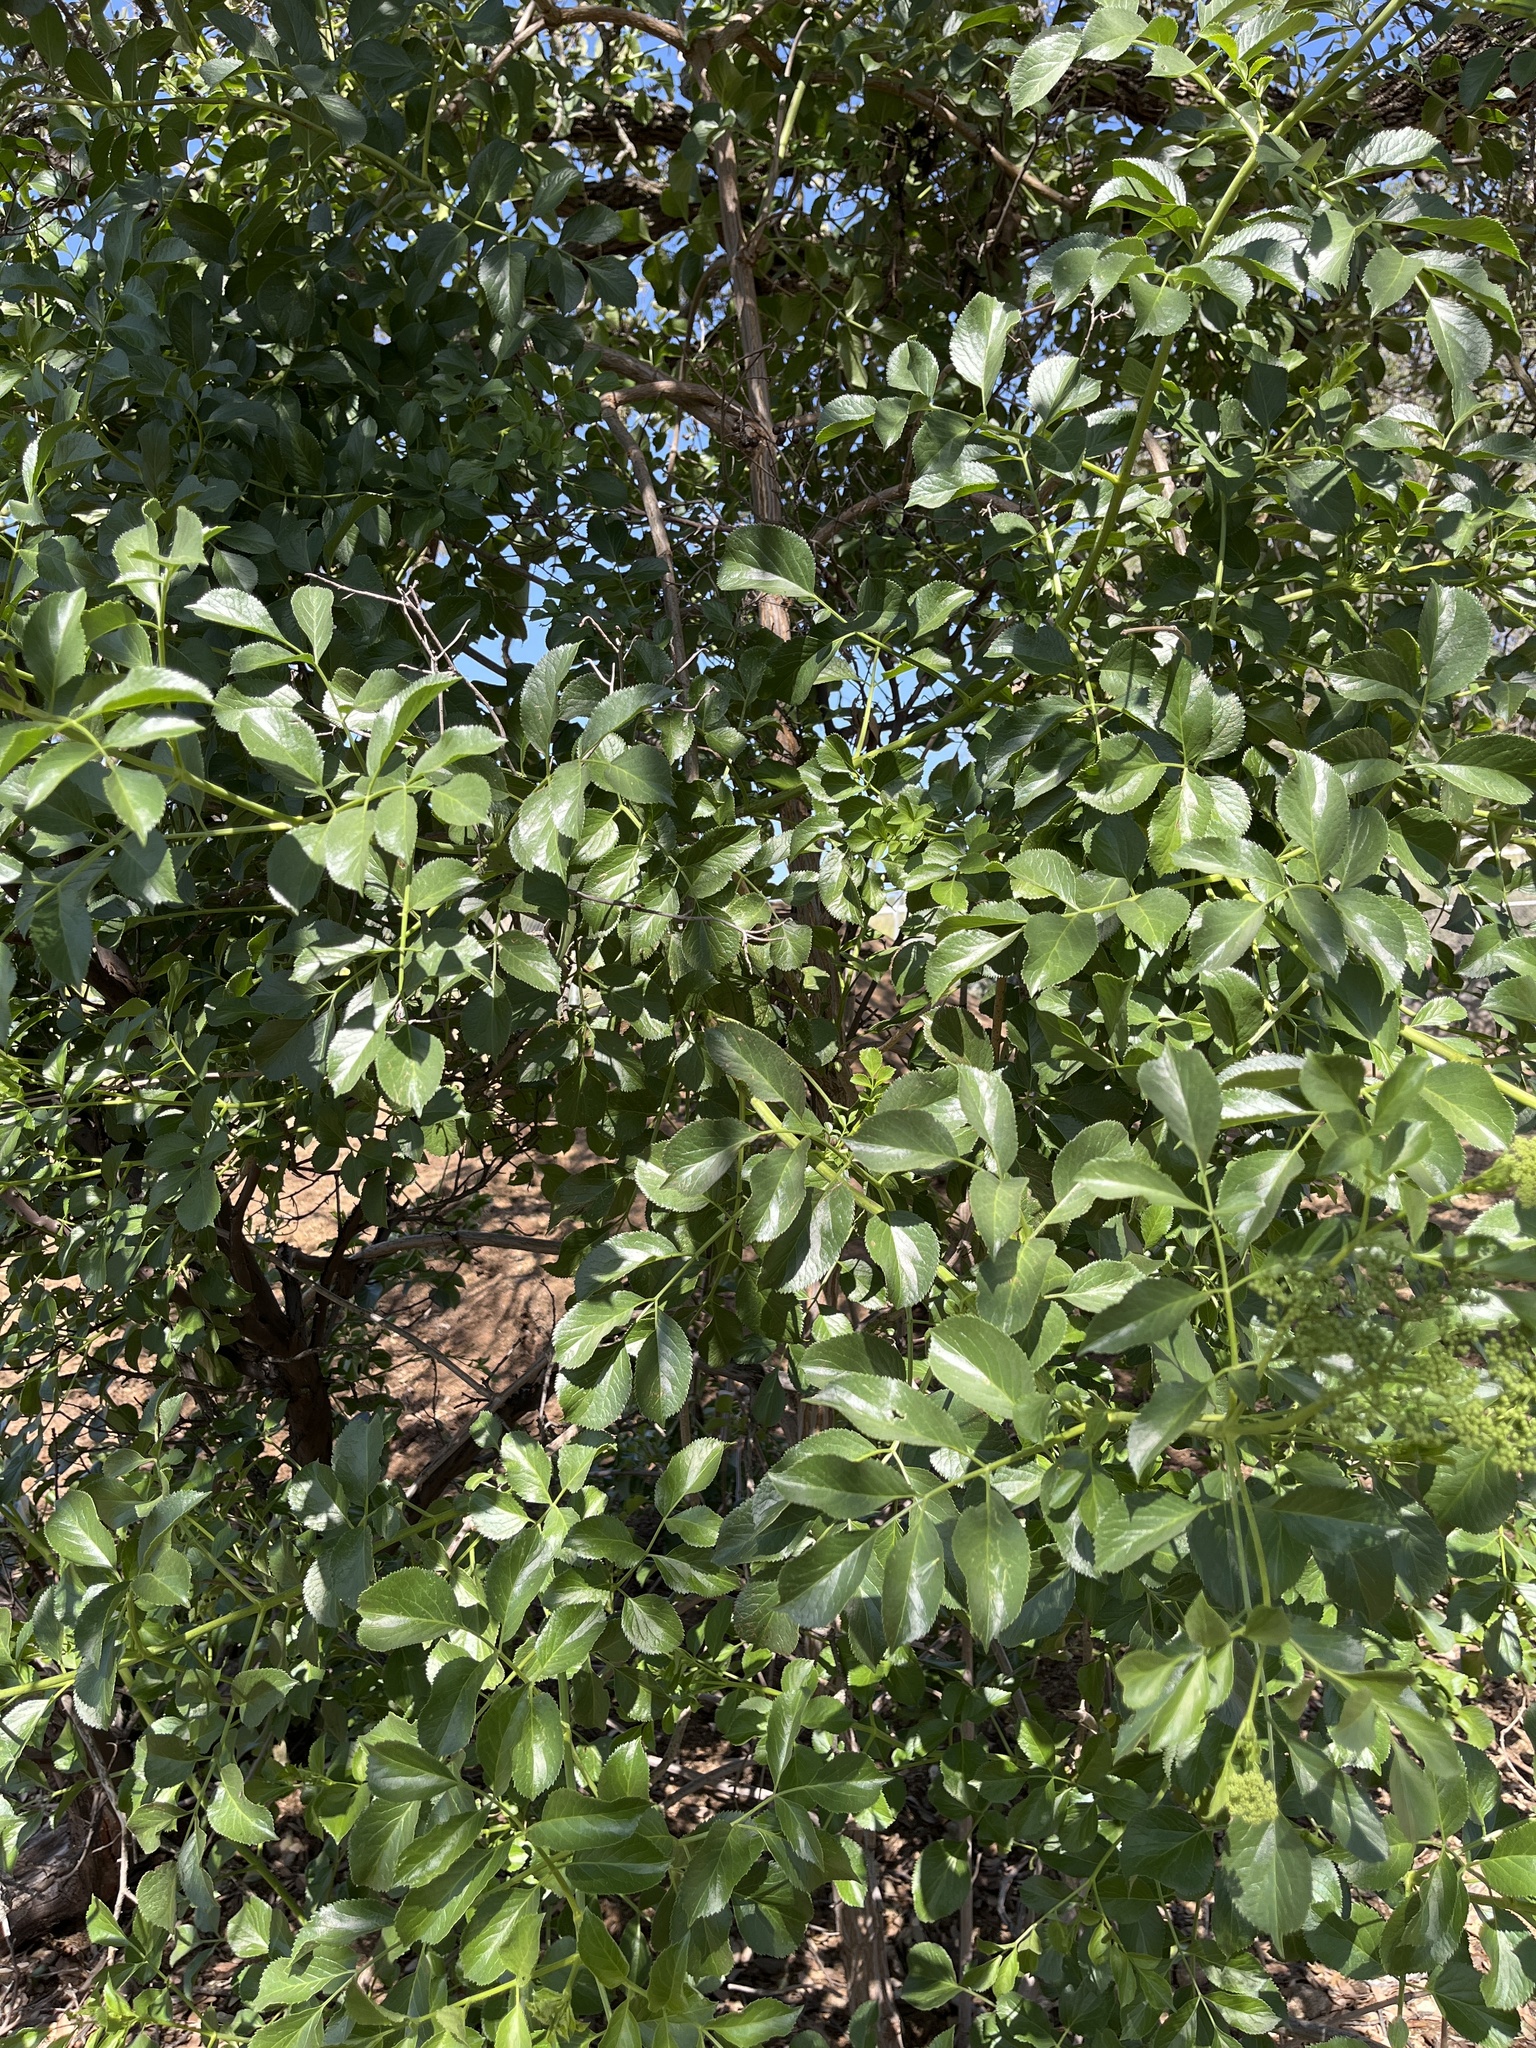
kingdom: Plantae
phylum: Tracheophyta
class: Magnoliopsida
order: Dipsacales
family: Viburnaceae
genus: Sambucus
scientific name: Sambucus cerulea
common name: Blue elder
